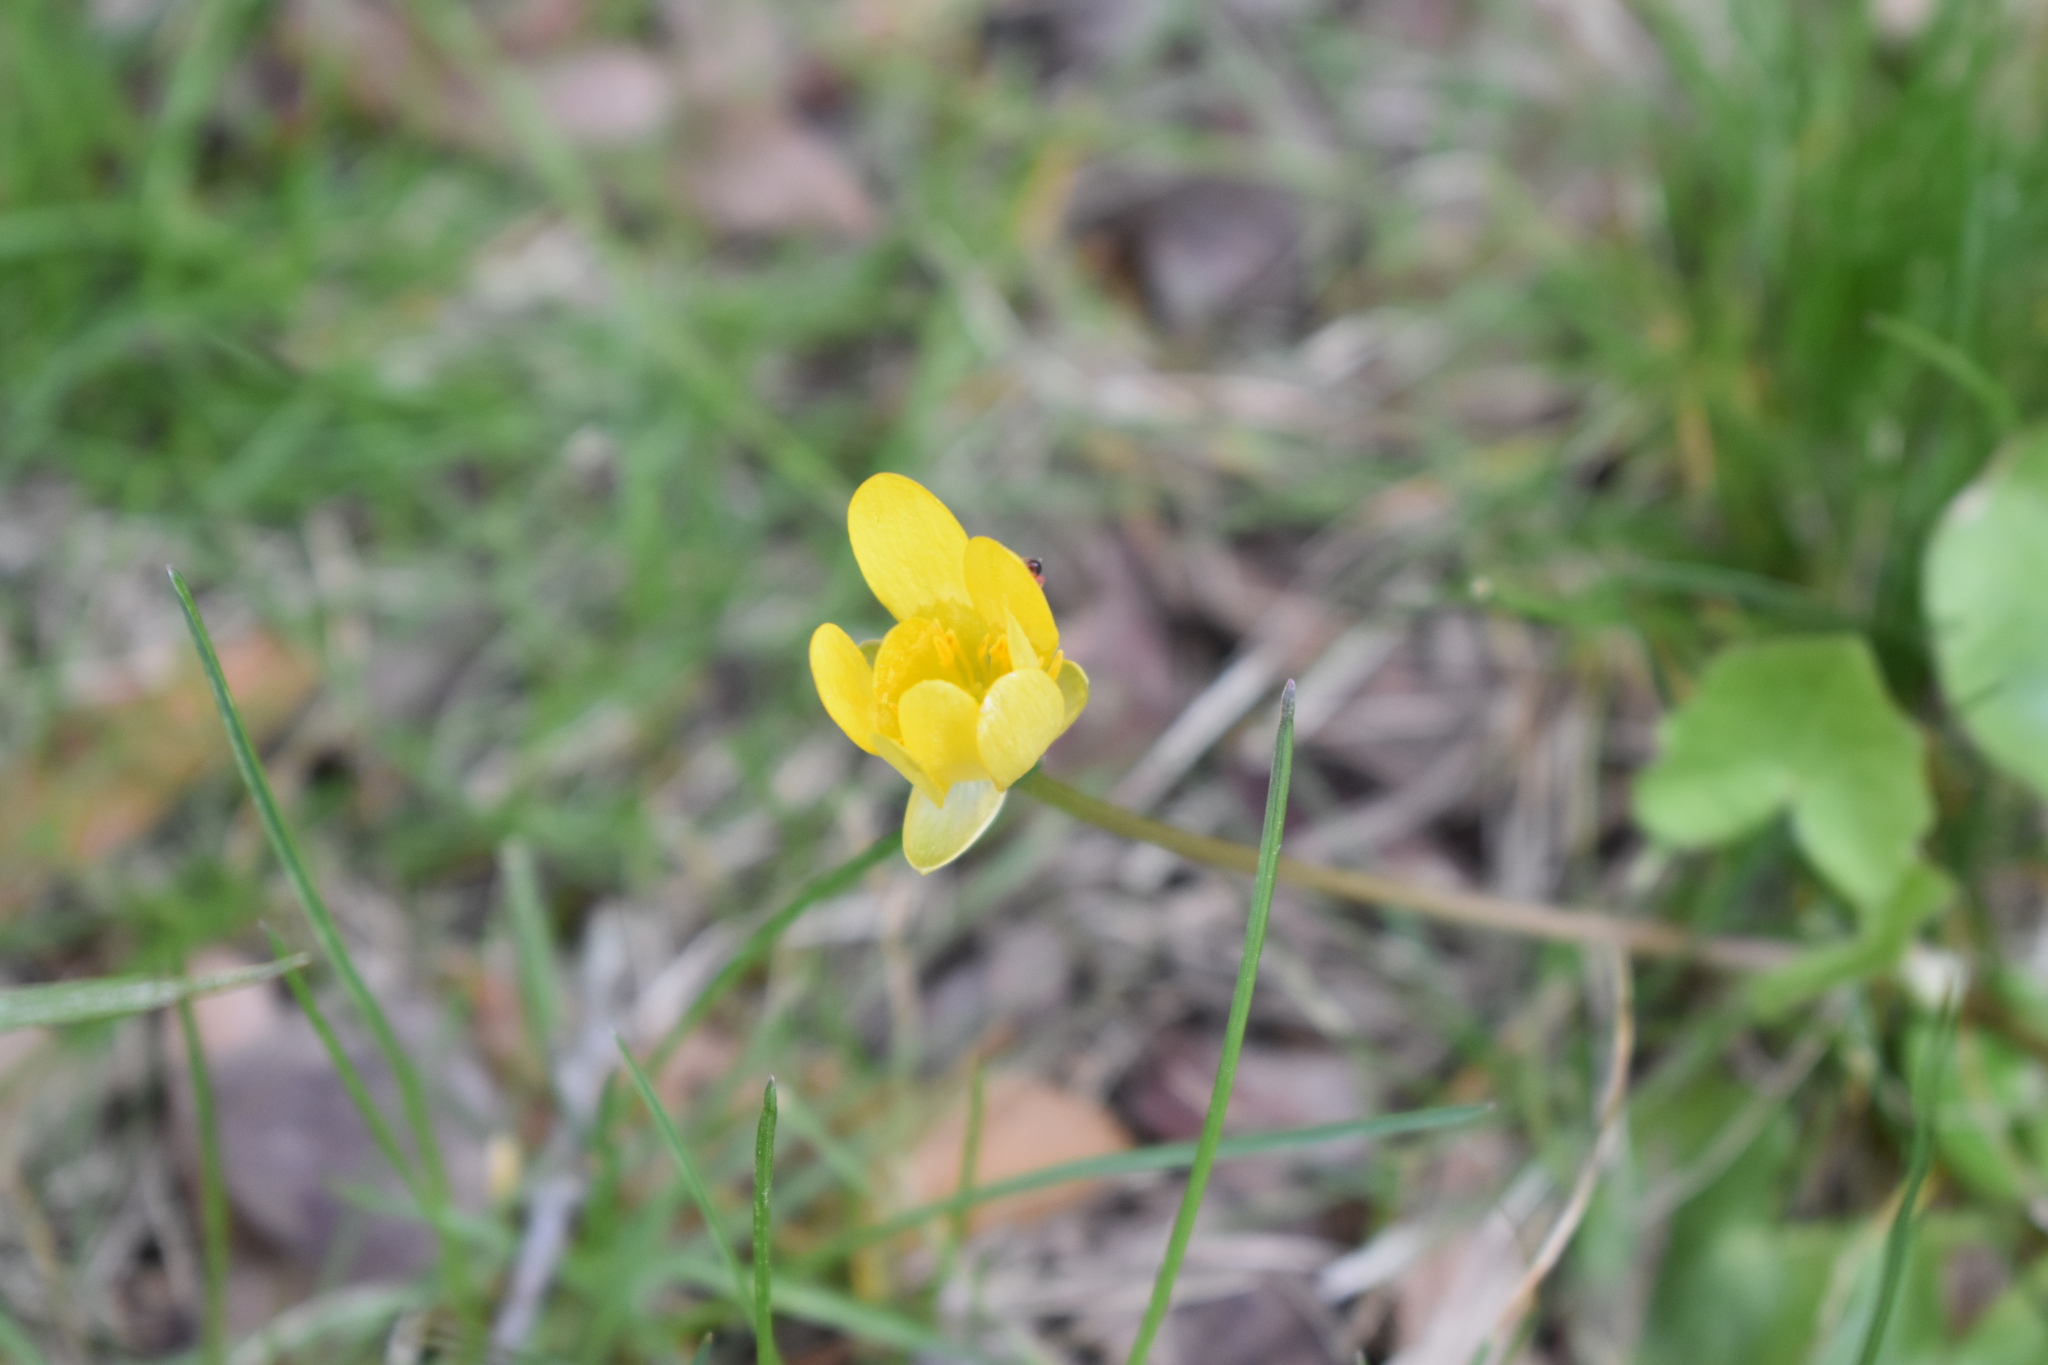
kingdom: Plantae
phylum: Tracheophyta
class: Magnoliopsida
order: Ranunculales
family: Ranunculaceae
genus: Ficaria
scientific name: Ficaria verna
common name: Lesser celandine
